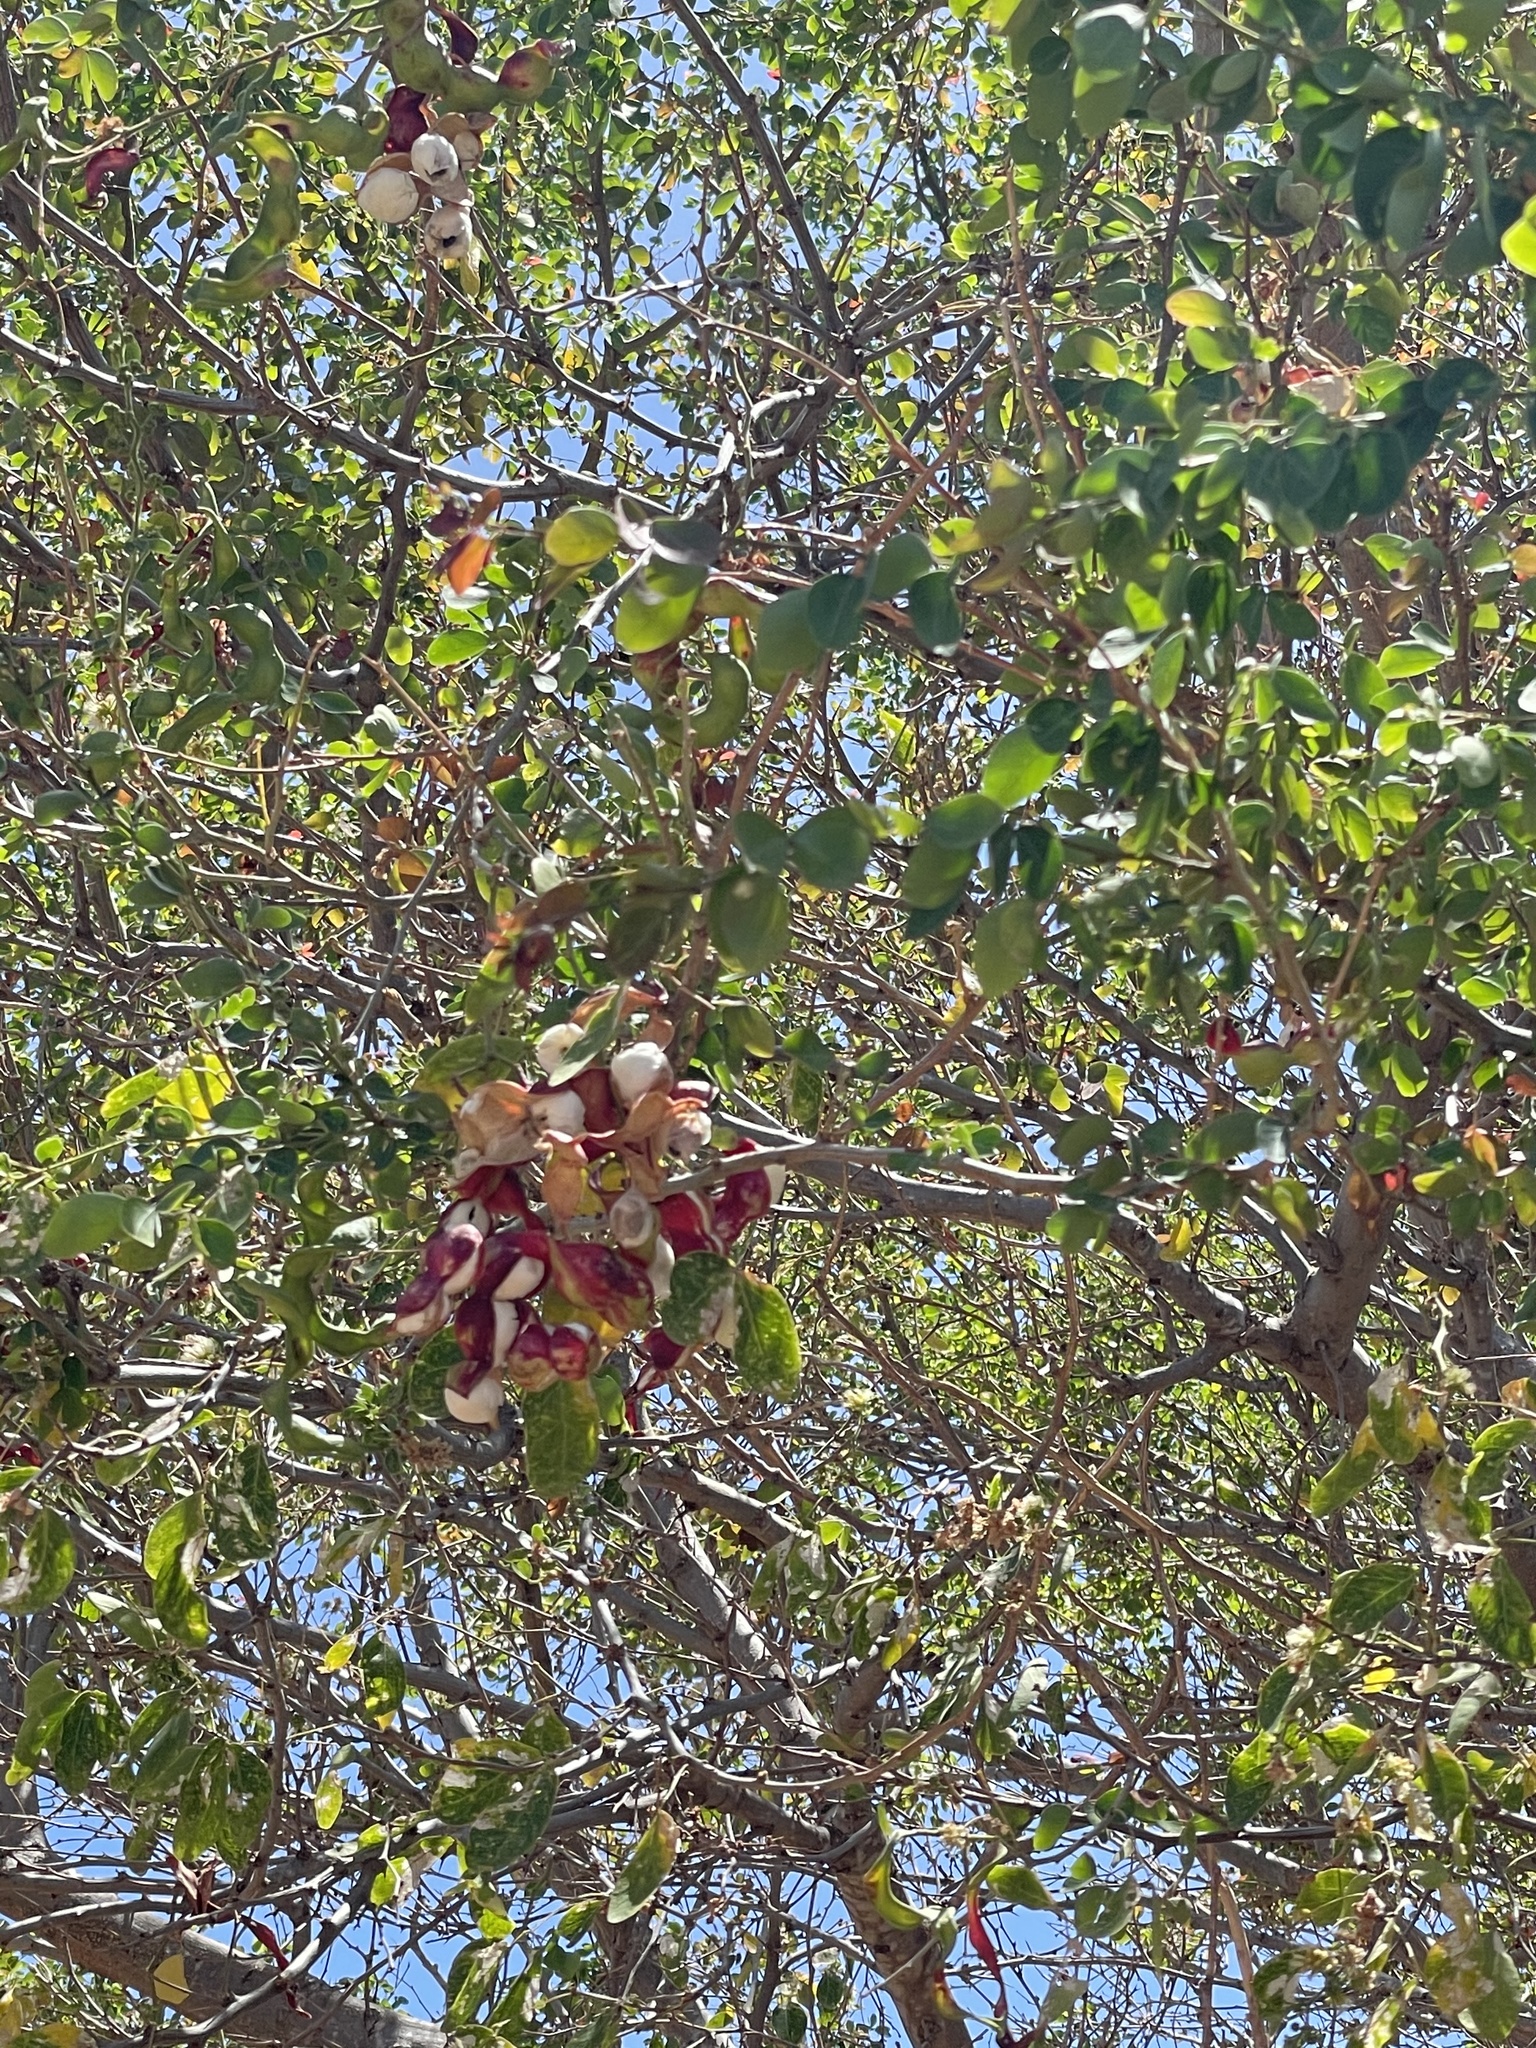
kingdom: Plantae
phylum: Tracheophyta
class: Magnoliopsida
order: Fabales
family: Fabaceae
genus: Pithecellobium
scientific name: Pithecellobium dulce
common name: Monkeypod
